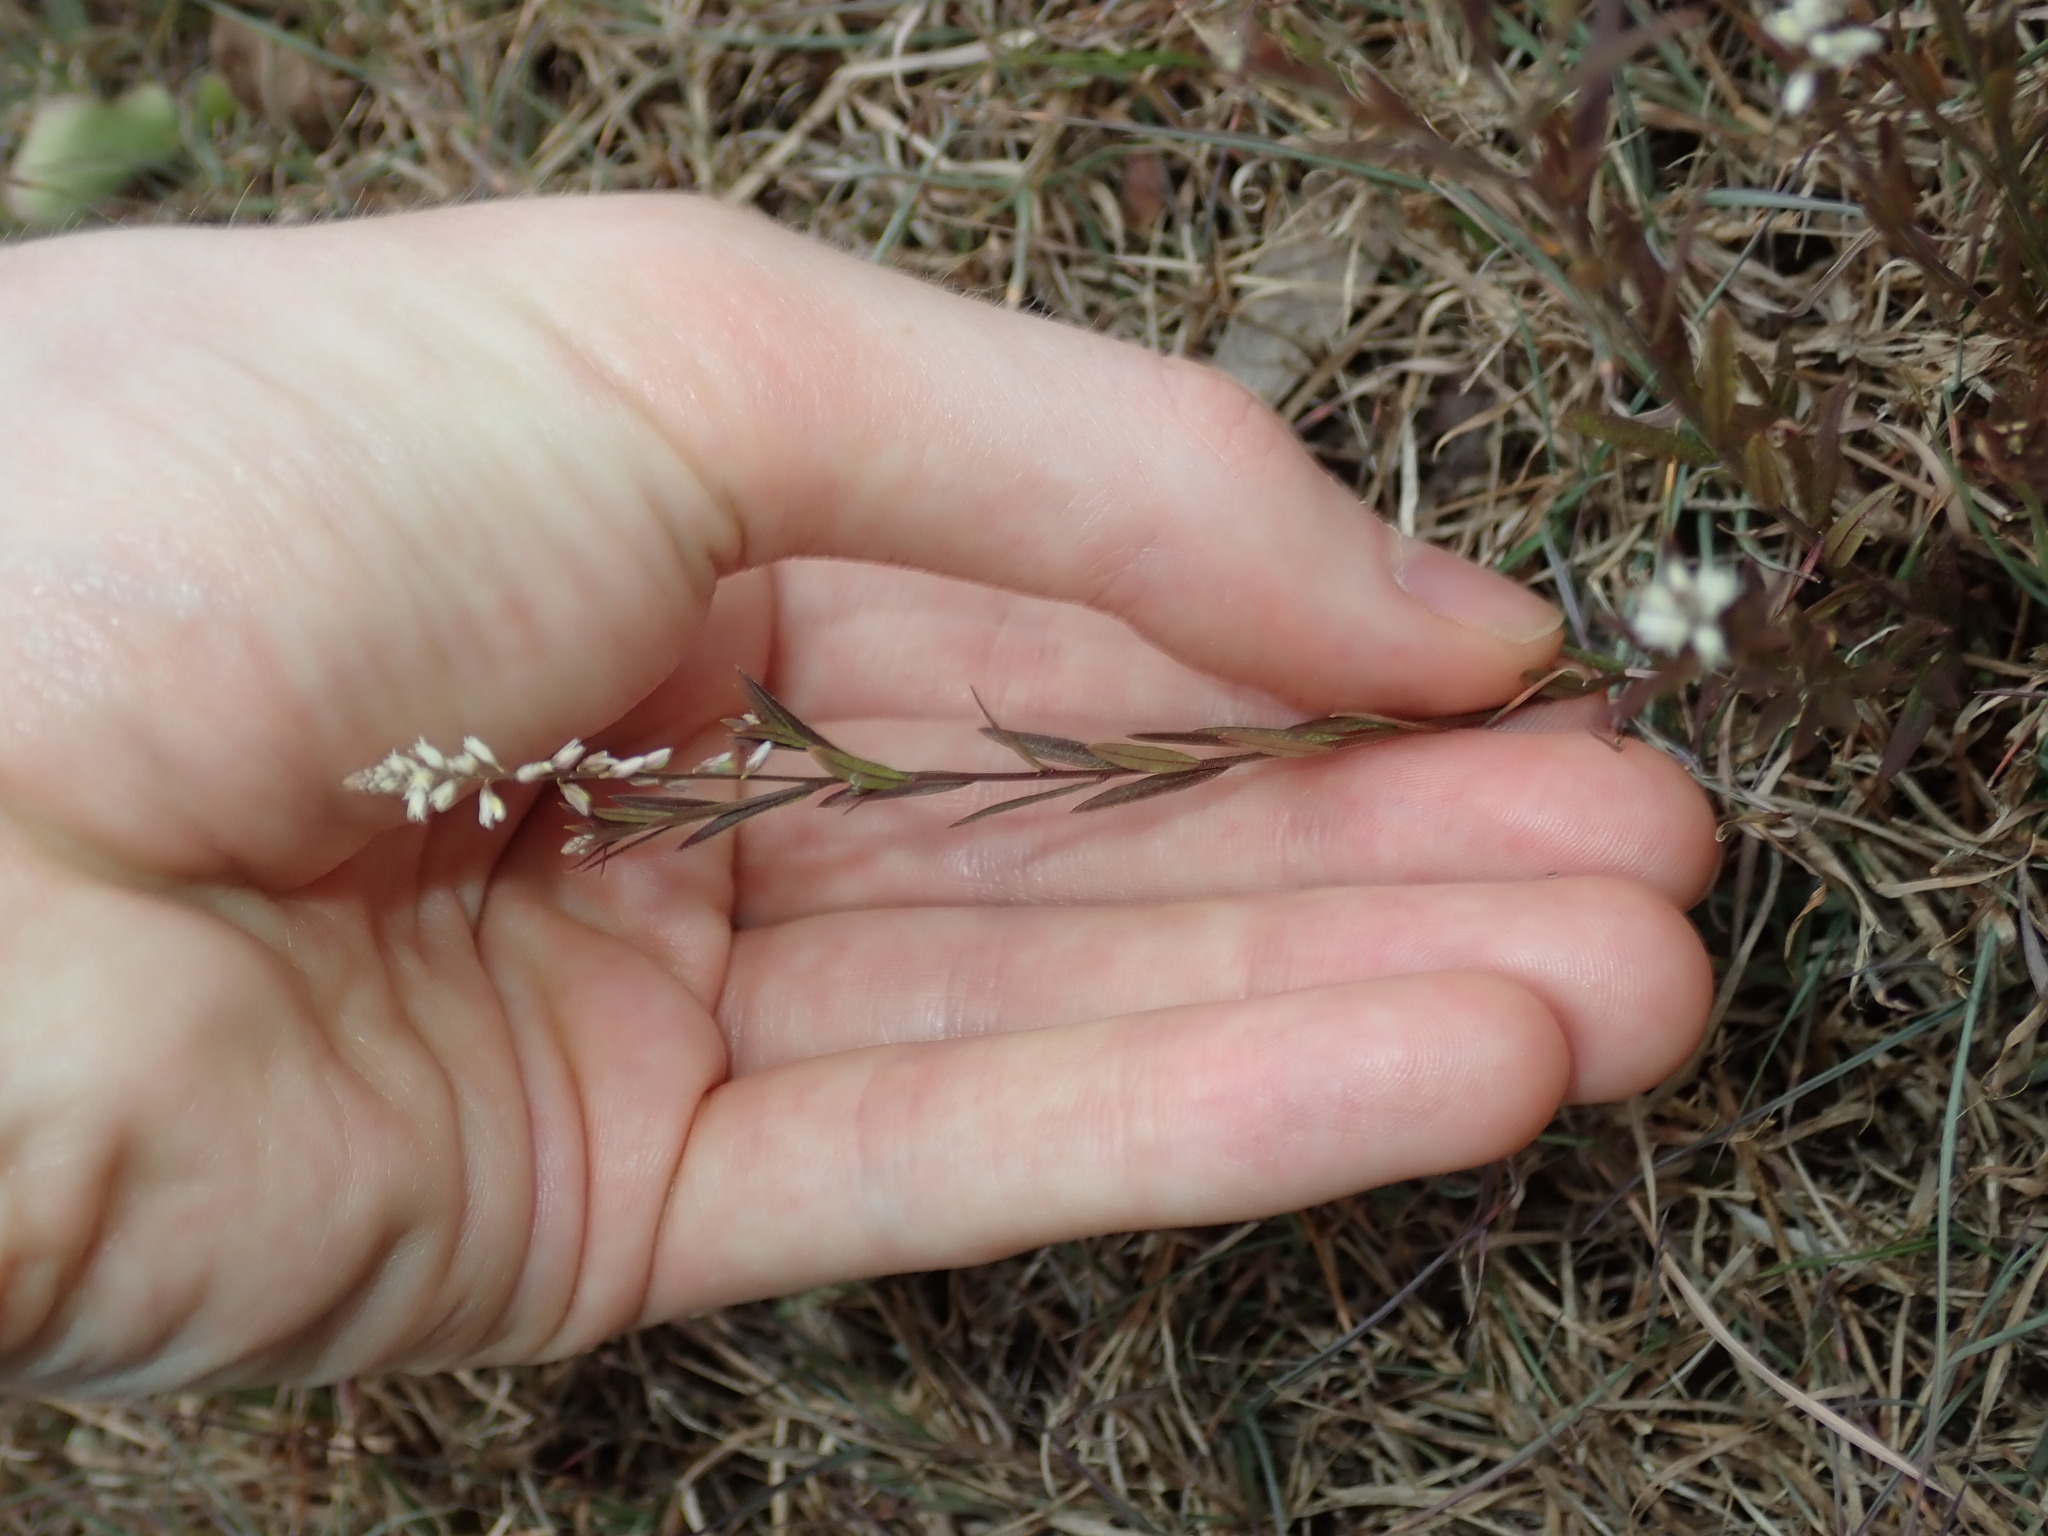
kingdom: Plantae
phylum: Tracheophyta
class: Magnoliopsida
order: Fabales
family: Polygalaceae
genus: Polygala
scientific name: Polygala paniculata
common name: Orosne
